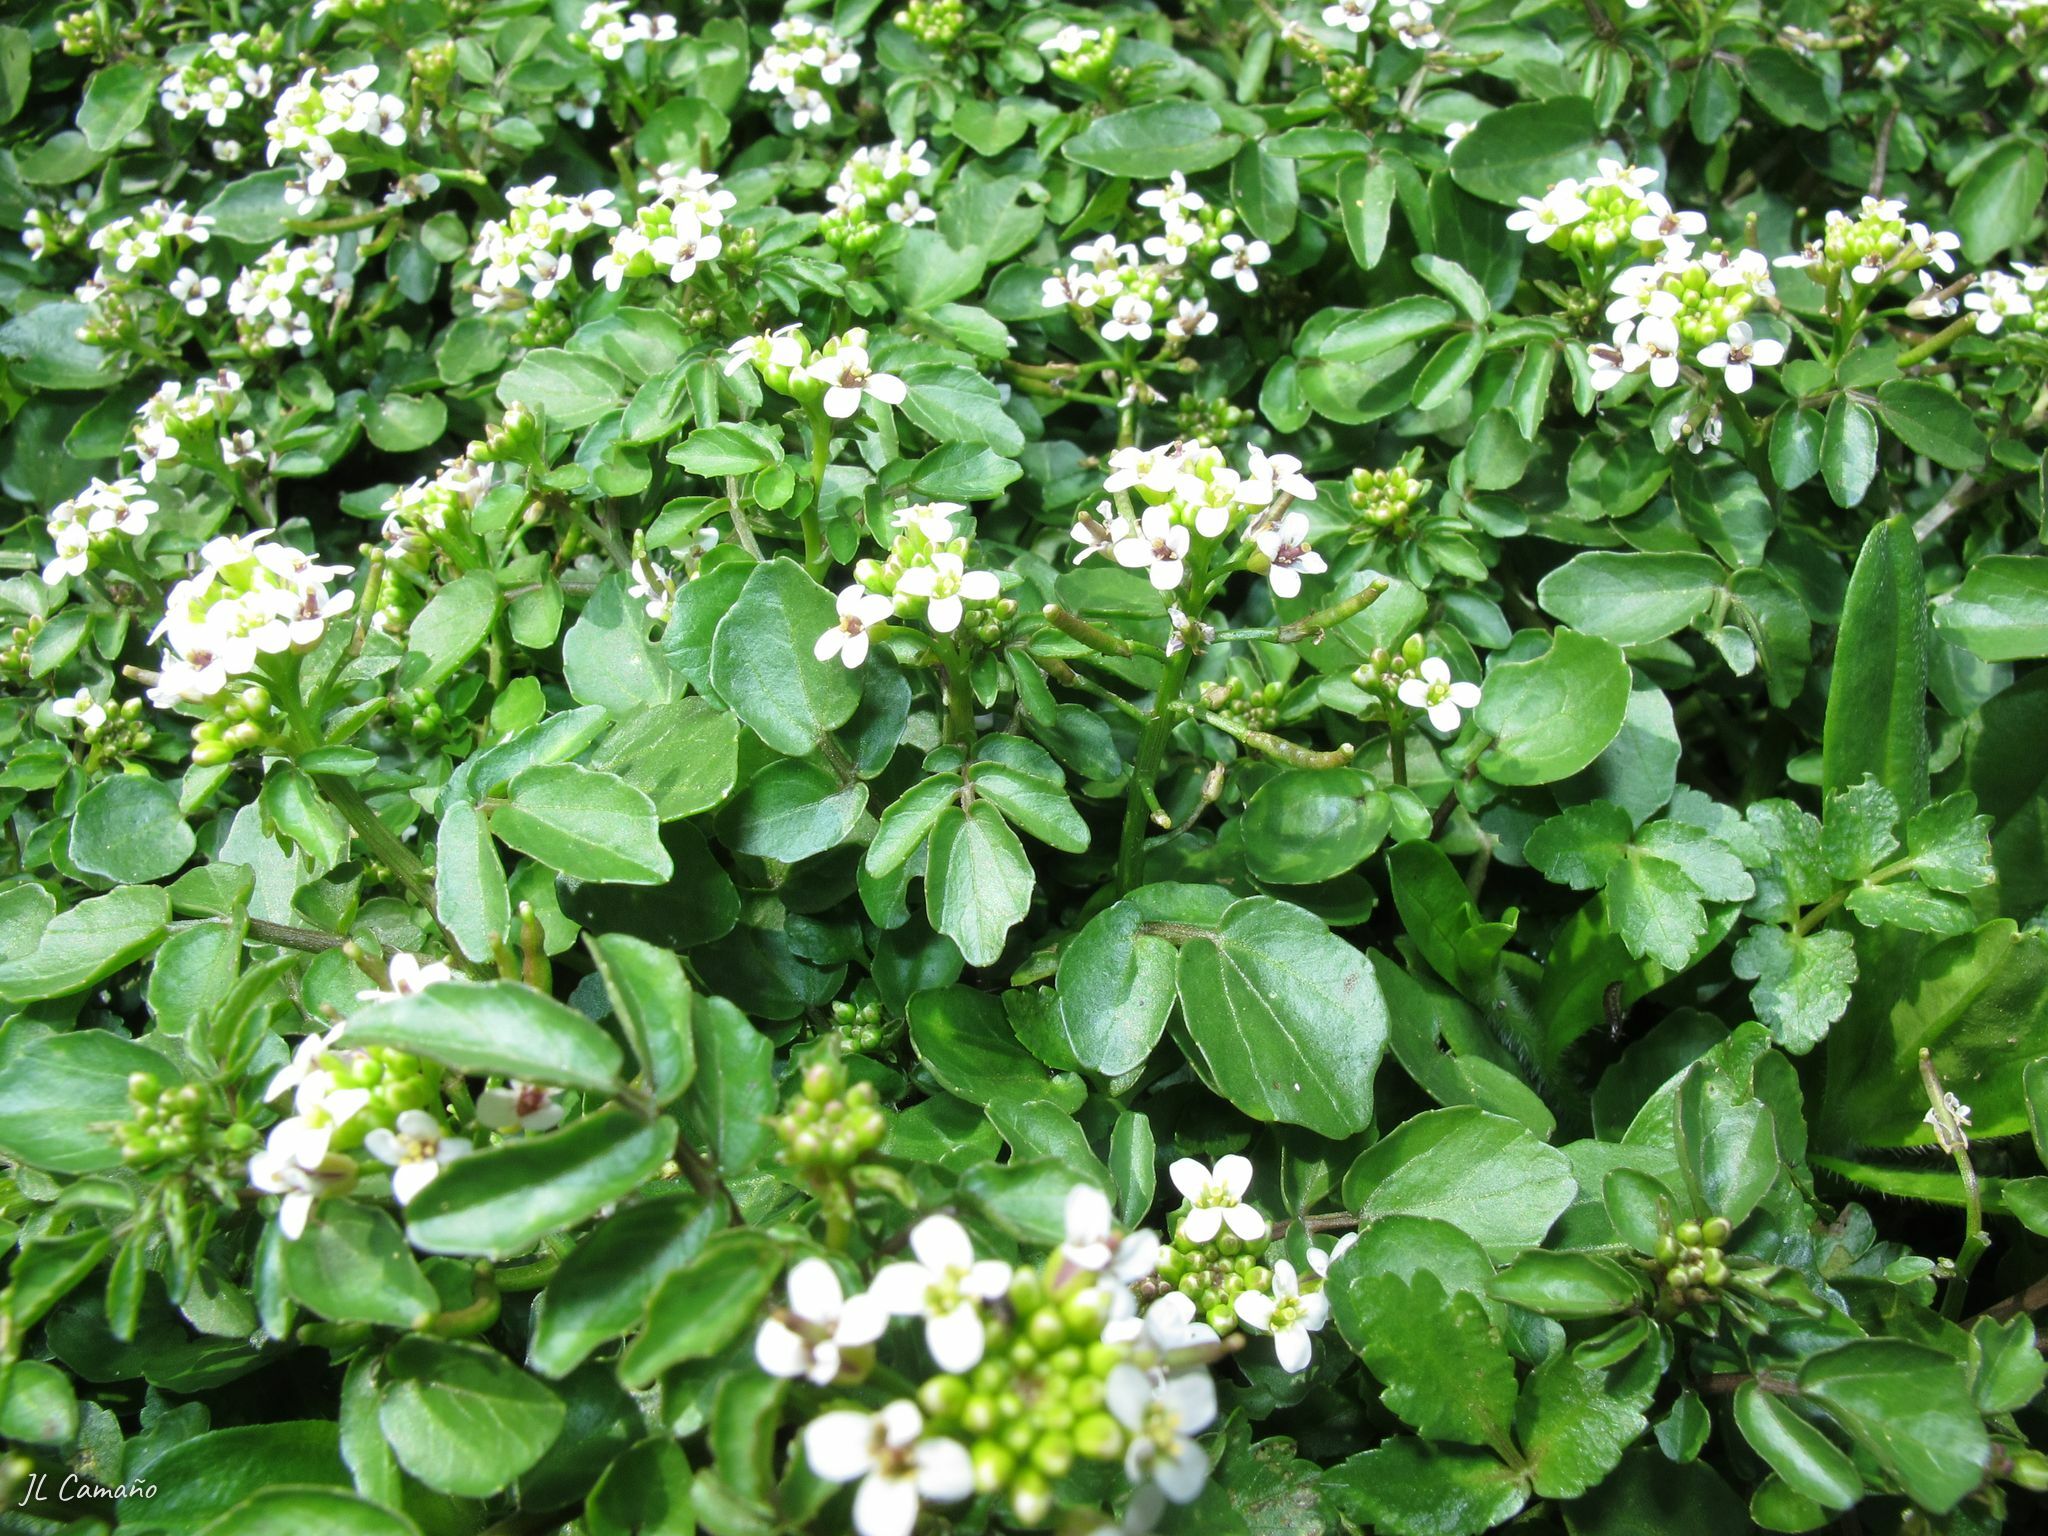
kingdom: Plantae
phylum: Tracheophyta
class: Magnoliopsida
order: Brassicales
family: Brassicaceae
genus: Nasturtium
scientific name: Nasturtium officinale
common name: Watercress
